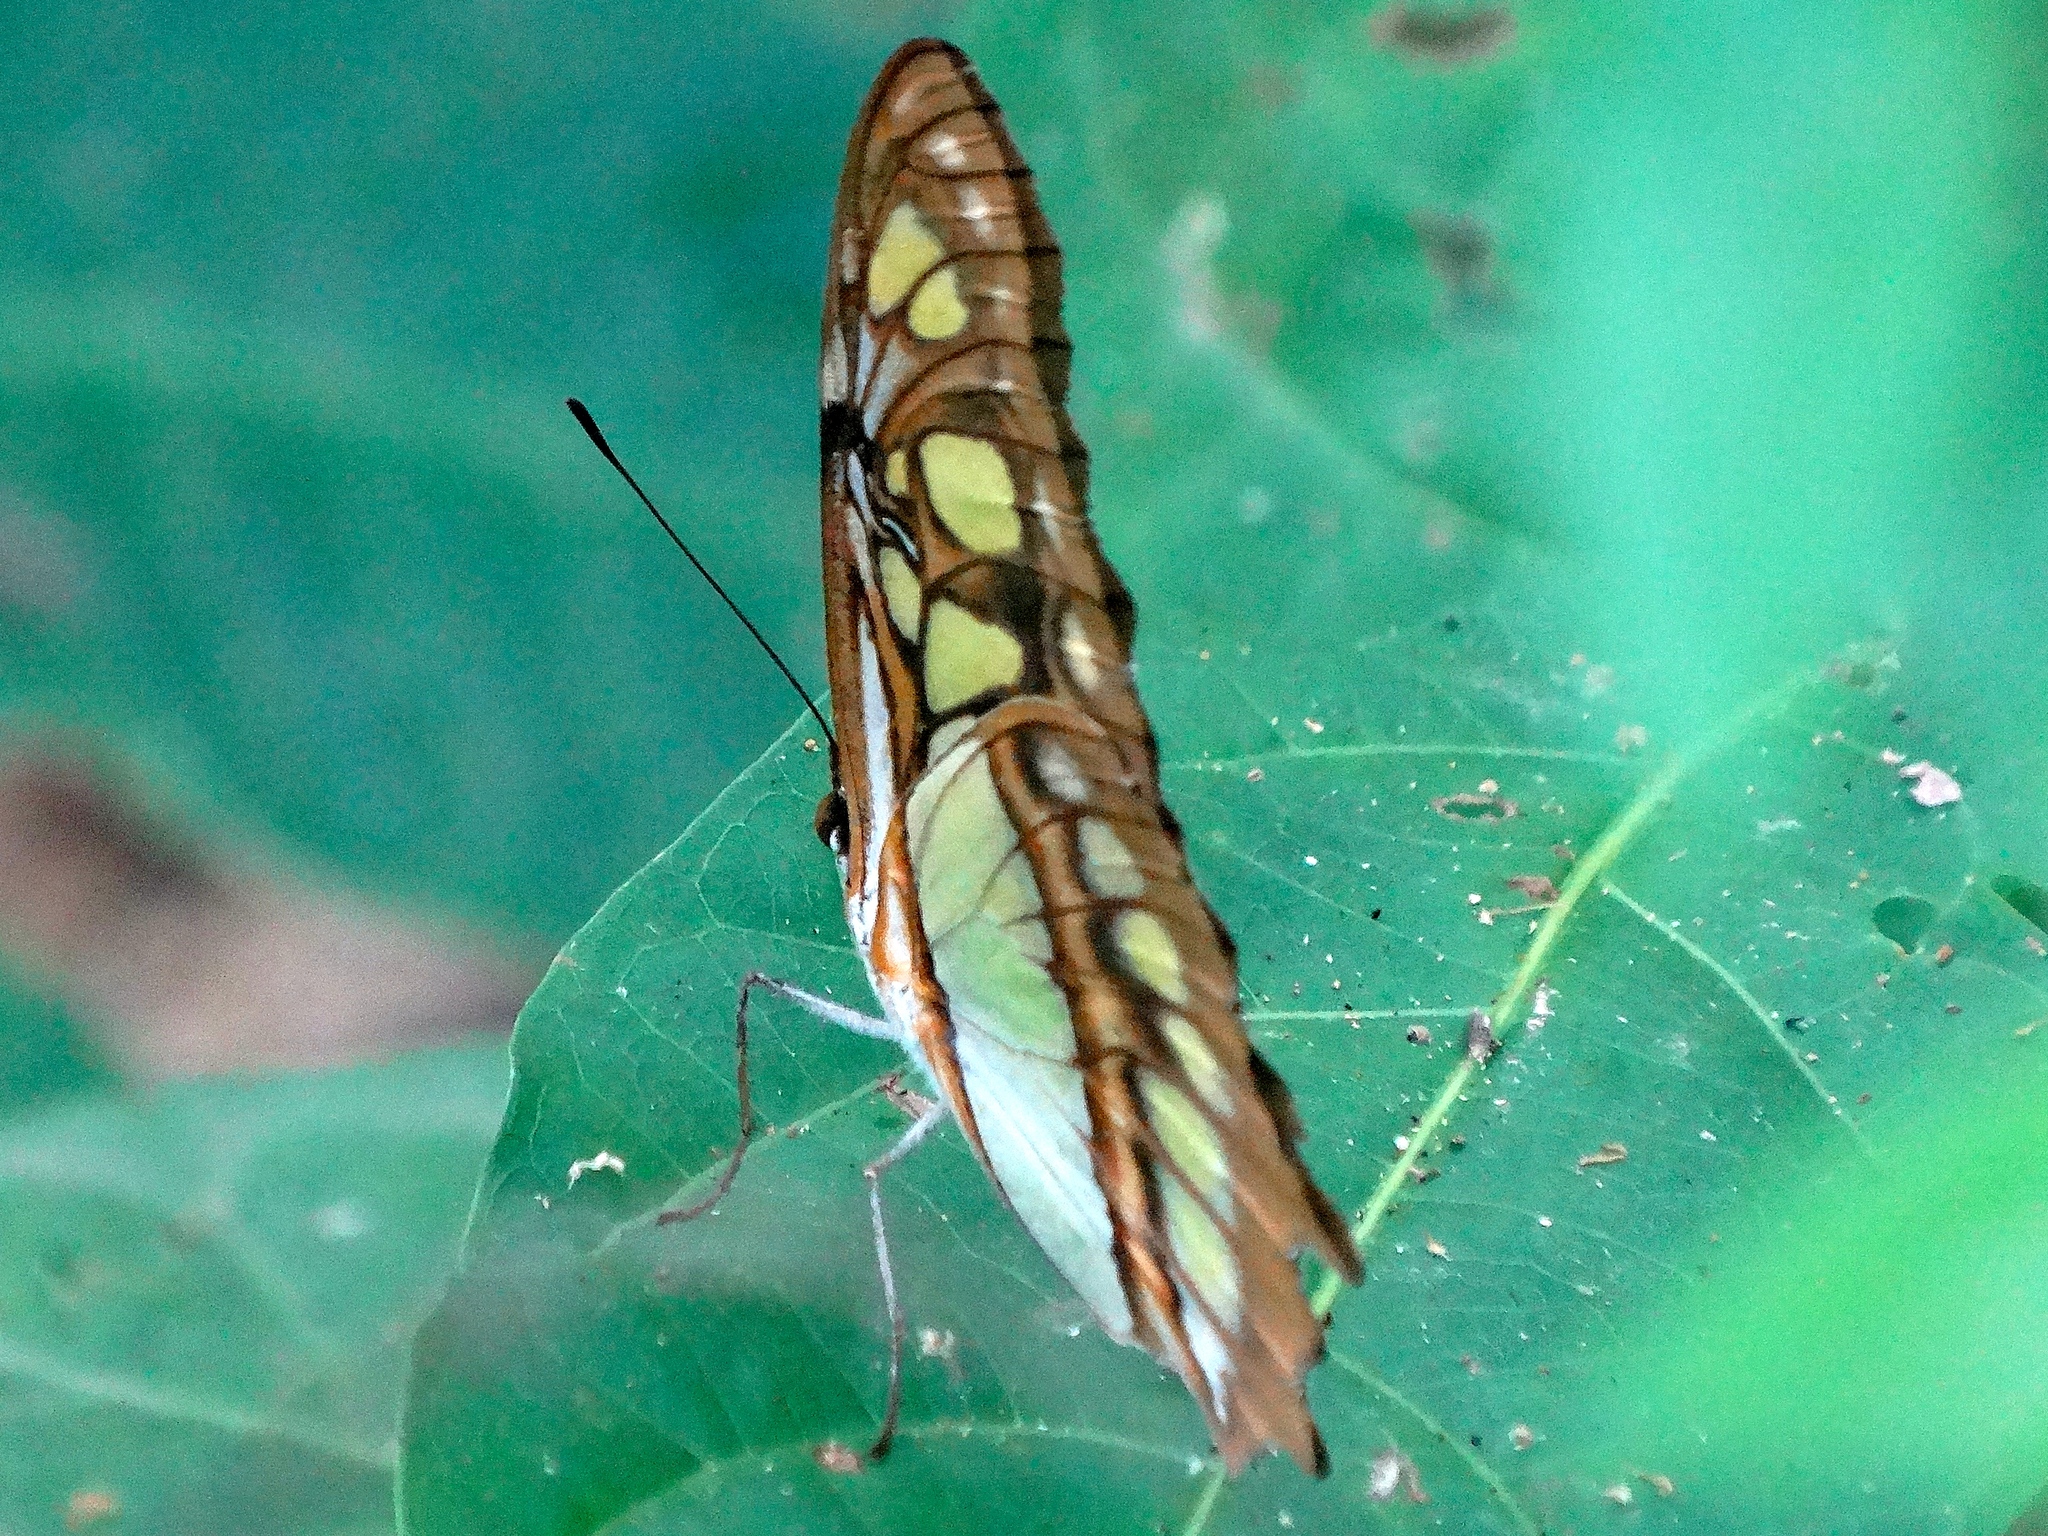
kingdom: Animalia
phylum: Arthropoda
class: Insecta
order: Lepidoptera
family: Nymphalidae
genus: Siproeta
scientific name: Siproeta stelenes
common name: Malachite
